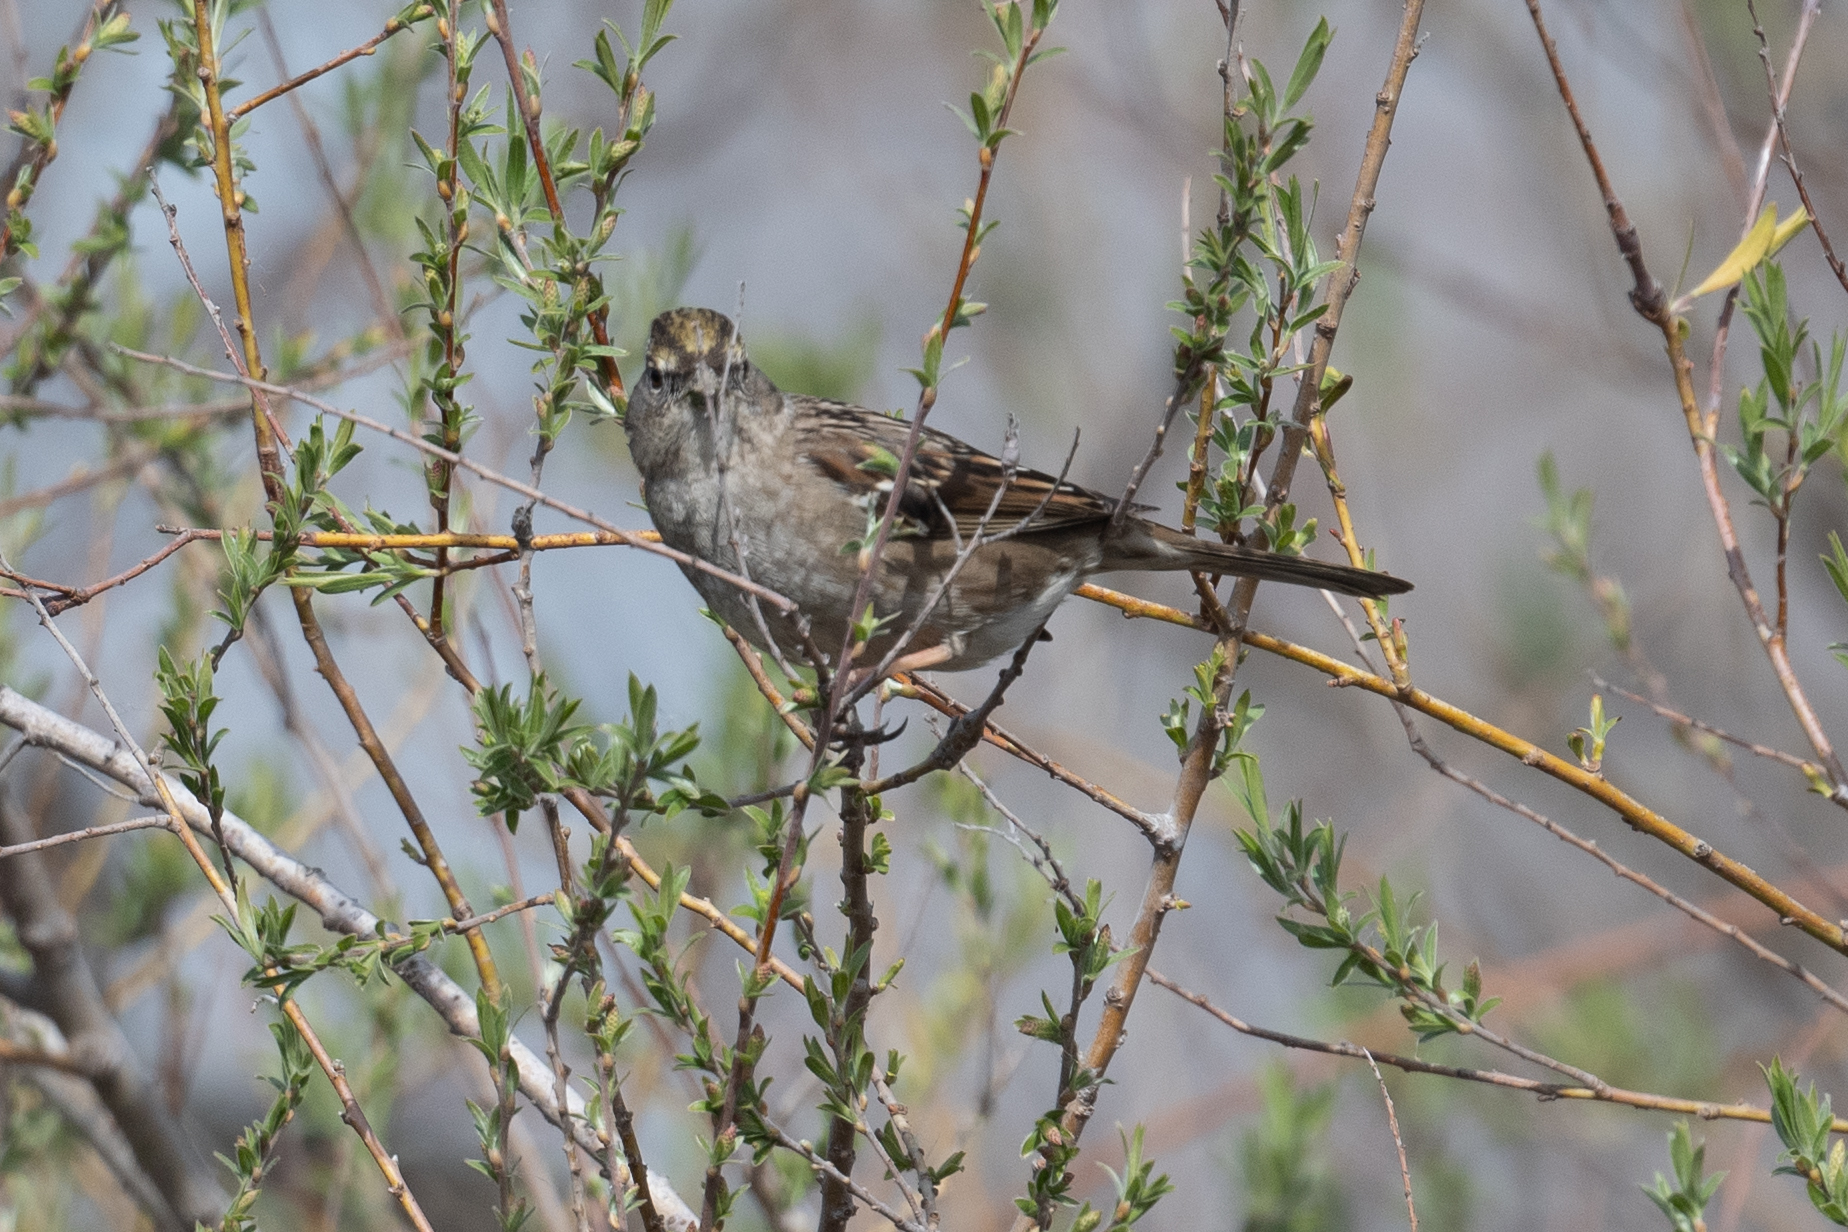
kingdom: Animalia
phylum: Chordata
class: Aves
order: Passeriformes
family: Passerellidae
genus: Zonotrichia
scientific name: Zonotrichia atricapilla
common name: Golden-crowned sparrow
